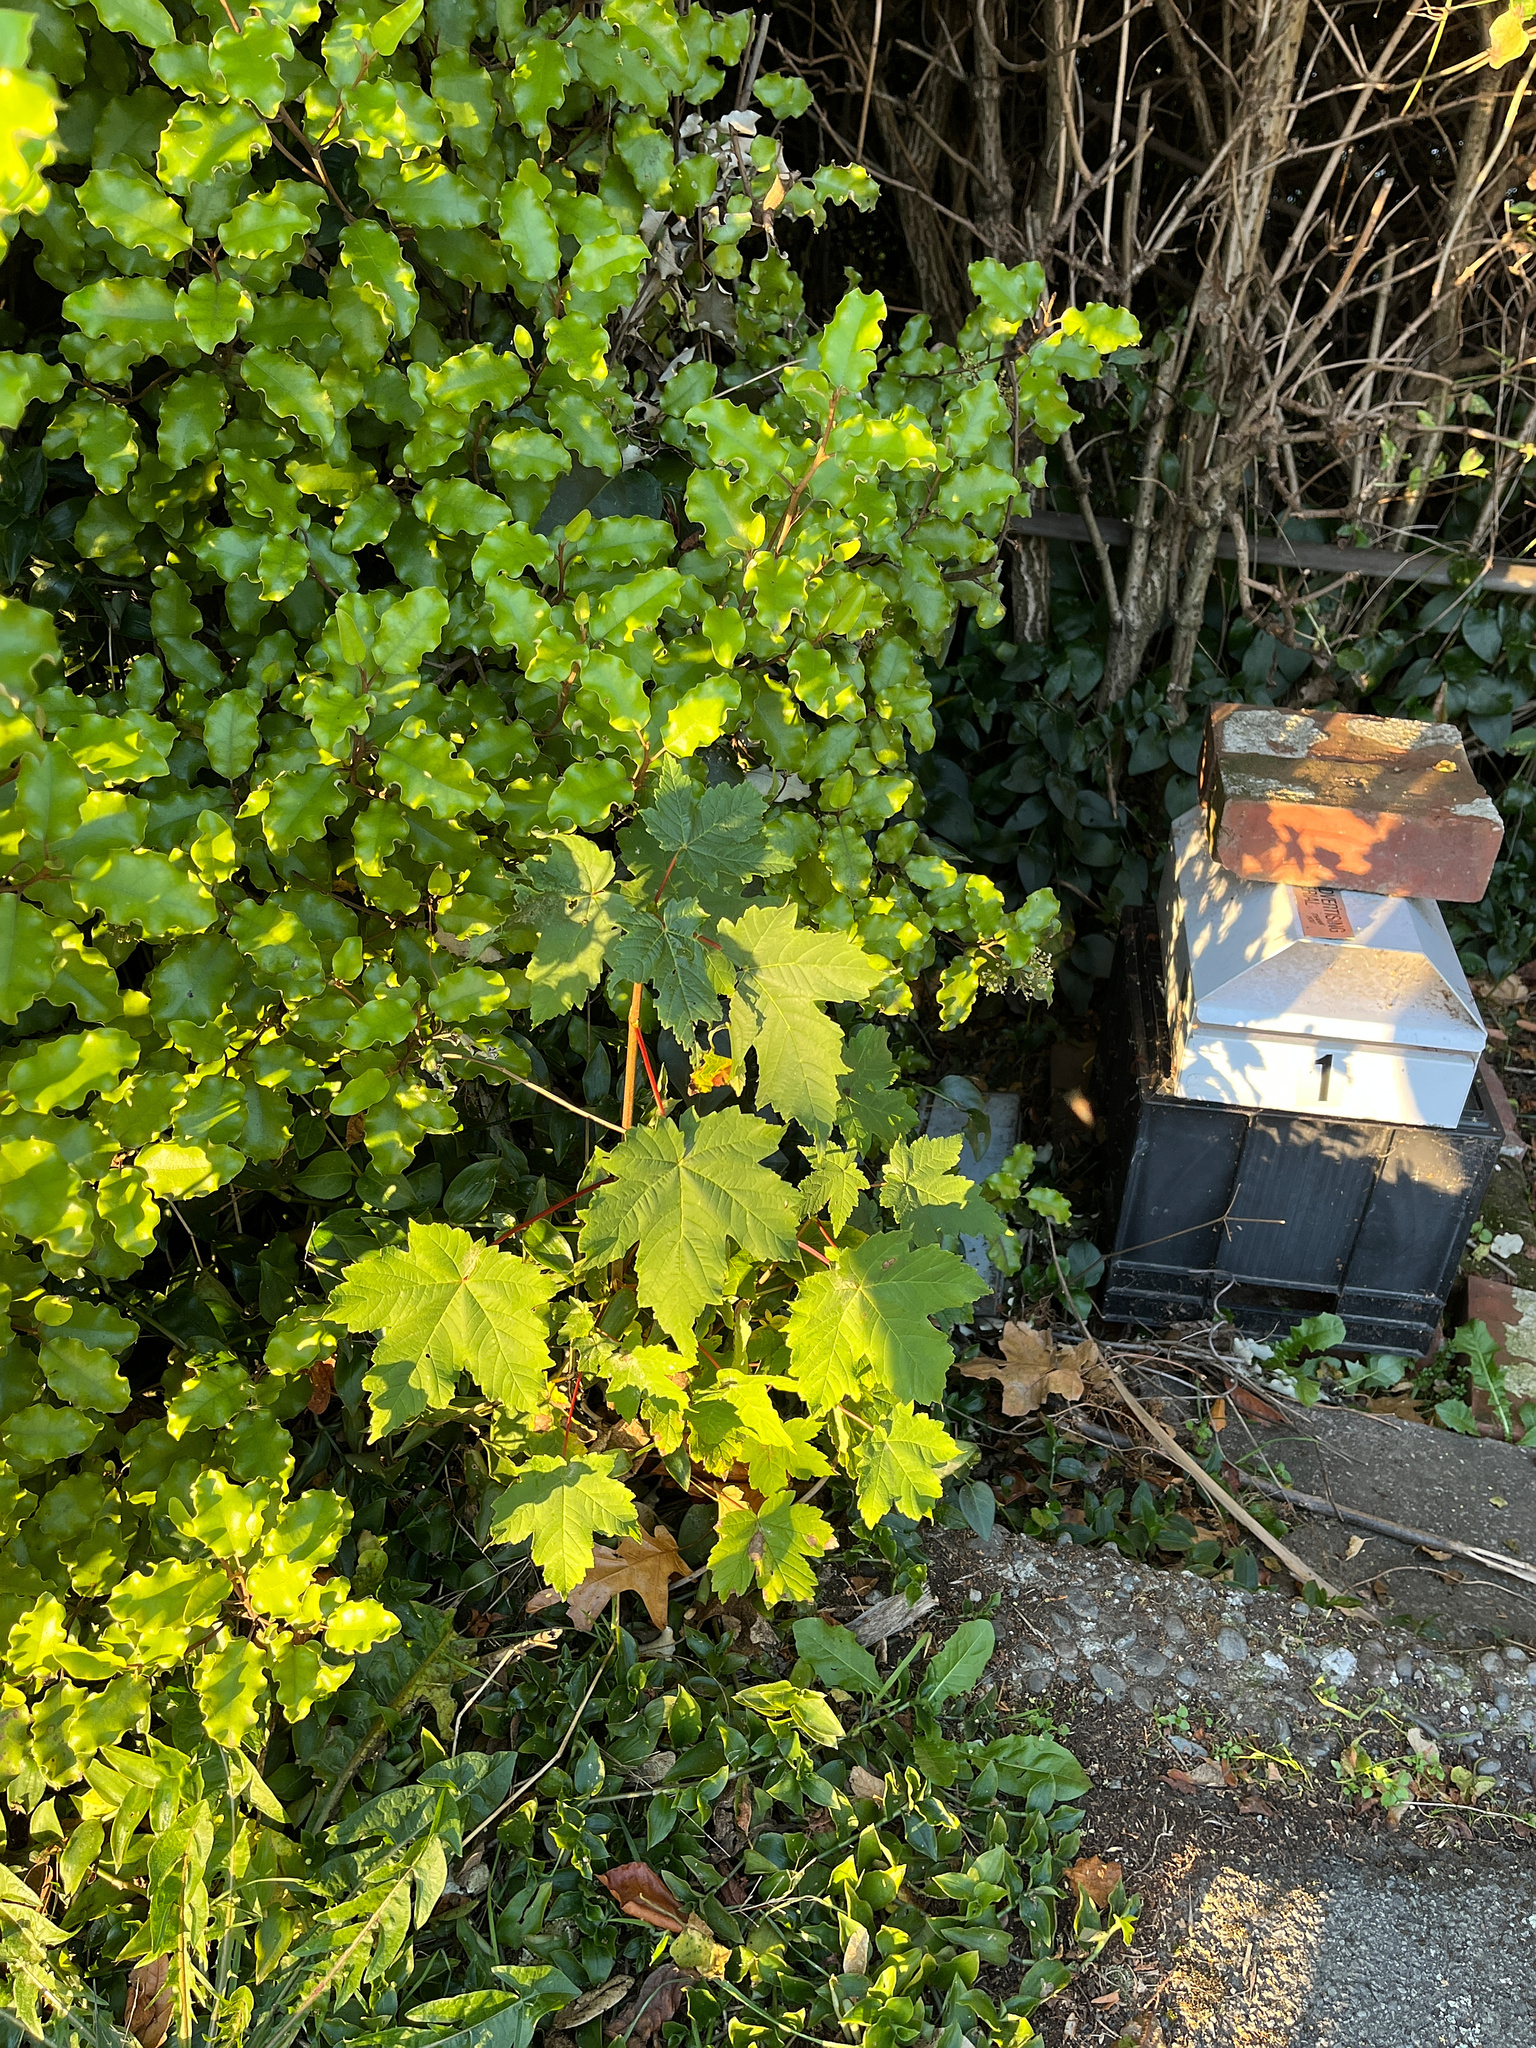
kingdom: Plantae
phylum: Tracheophyta
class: Magnoliopsida
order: Sapindales
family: Sapindaceae
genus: Acer
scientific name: Acer pseudoplatanus
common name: Sycamore
